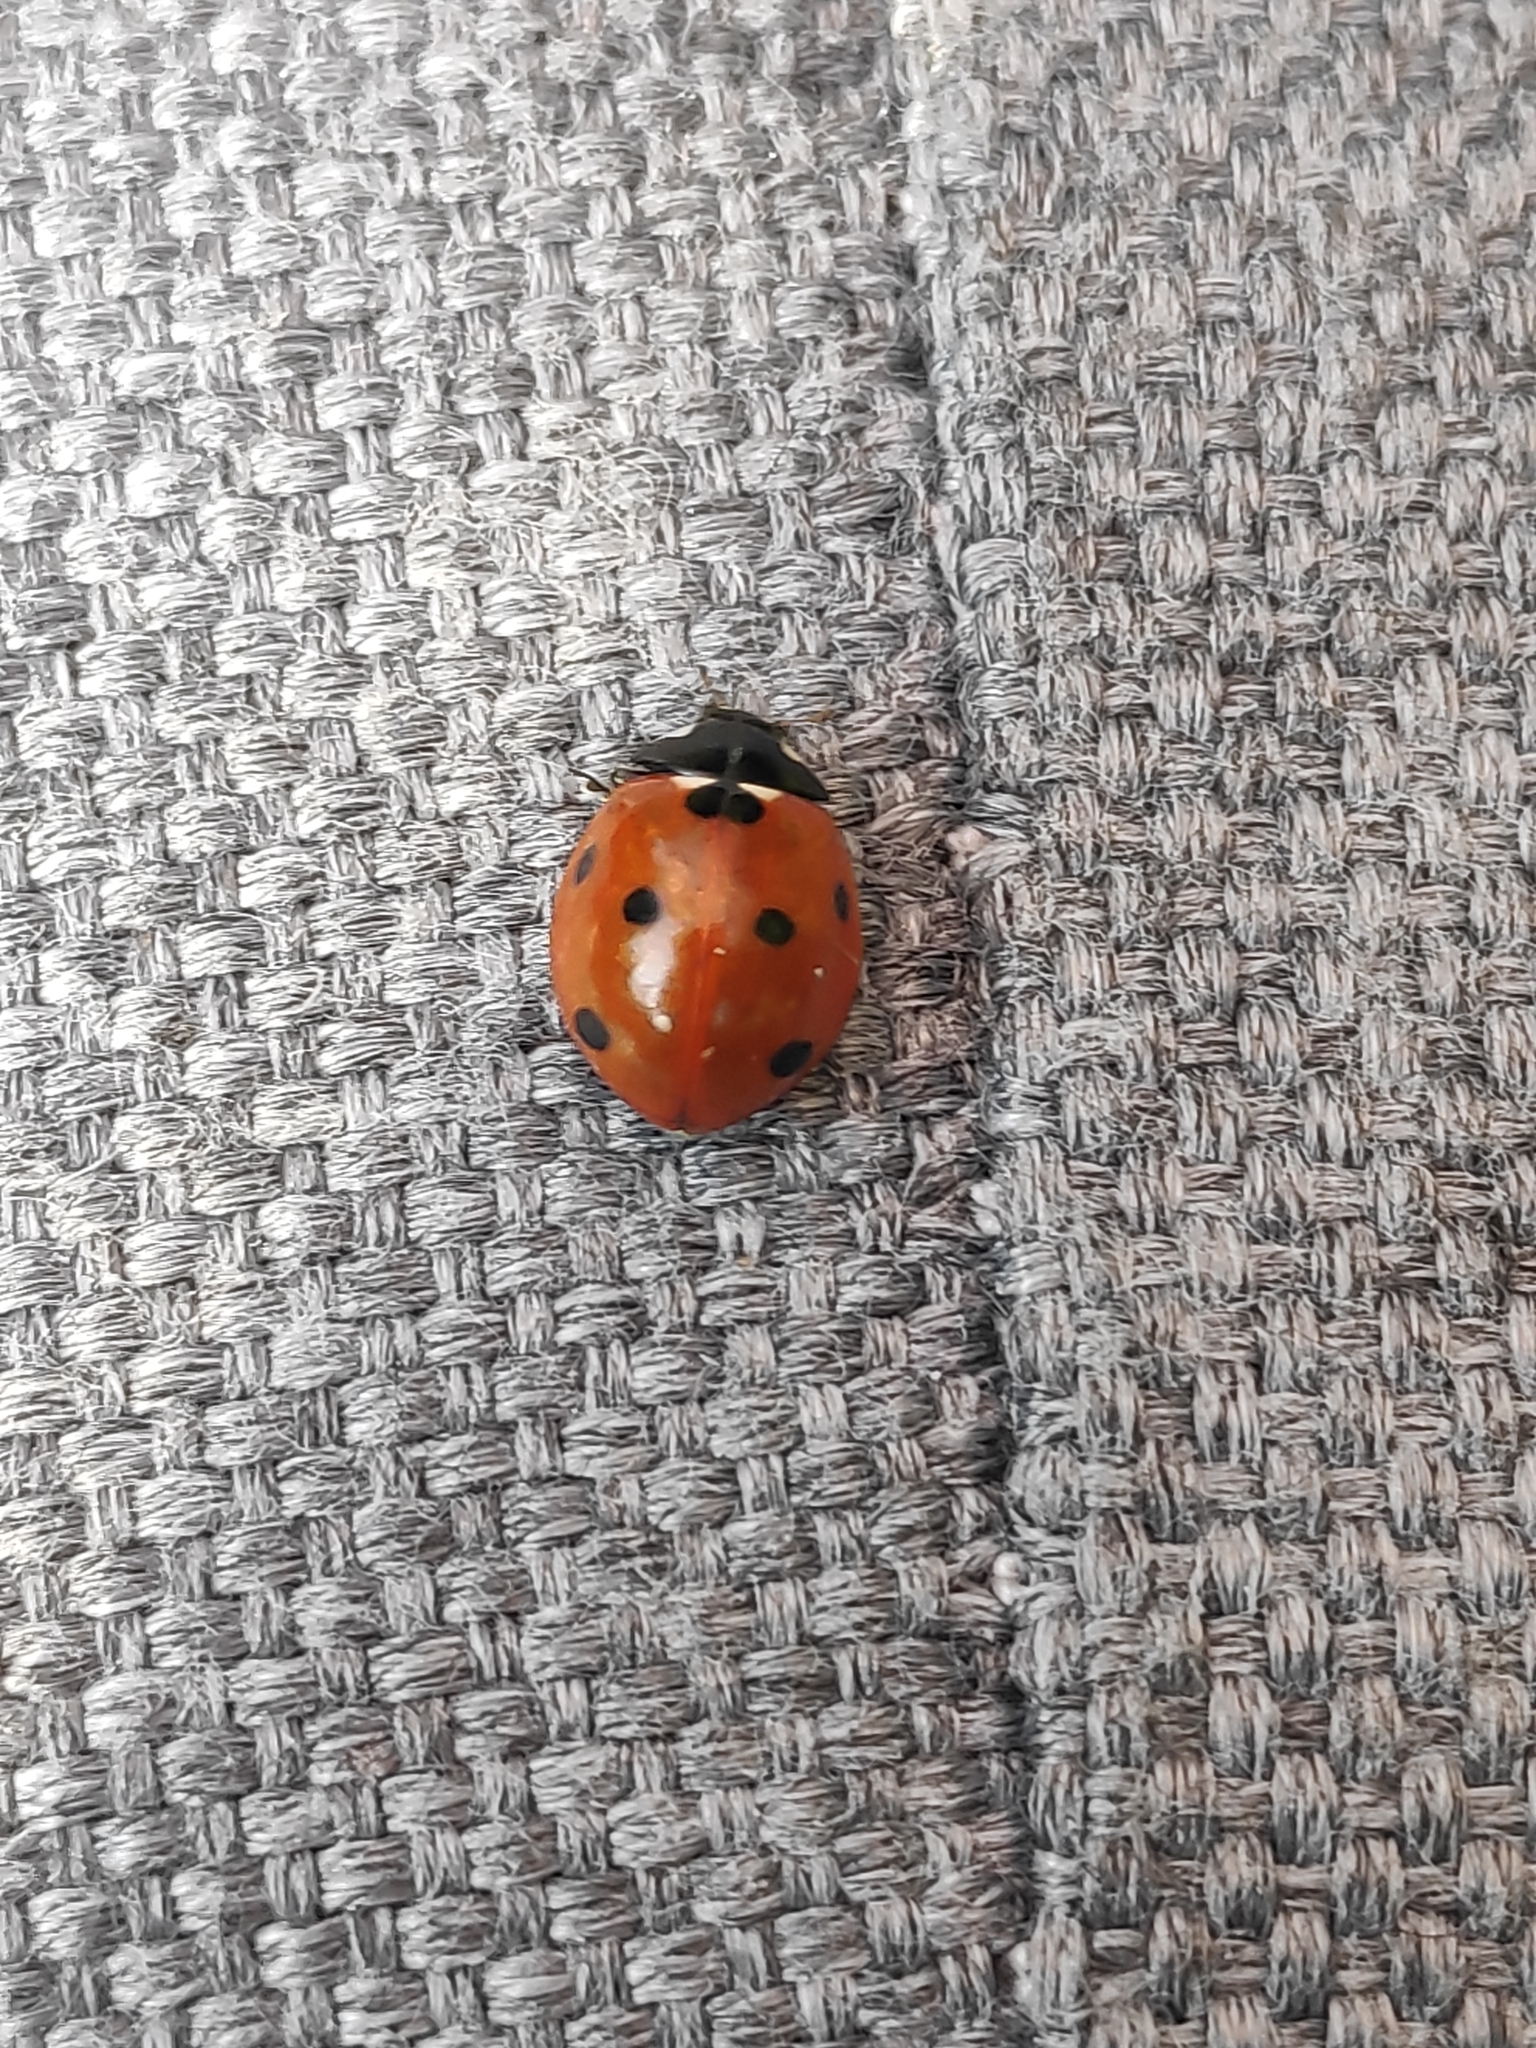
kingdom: Animalia
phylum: Arthropoda
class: Insecta
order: Coleoptera
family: Coccinellidae
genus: Coccinella
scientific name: Coccinella septempunctata
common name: Sevenspotted lady beetle
